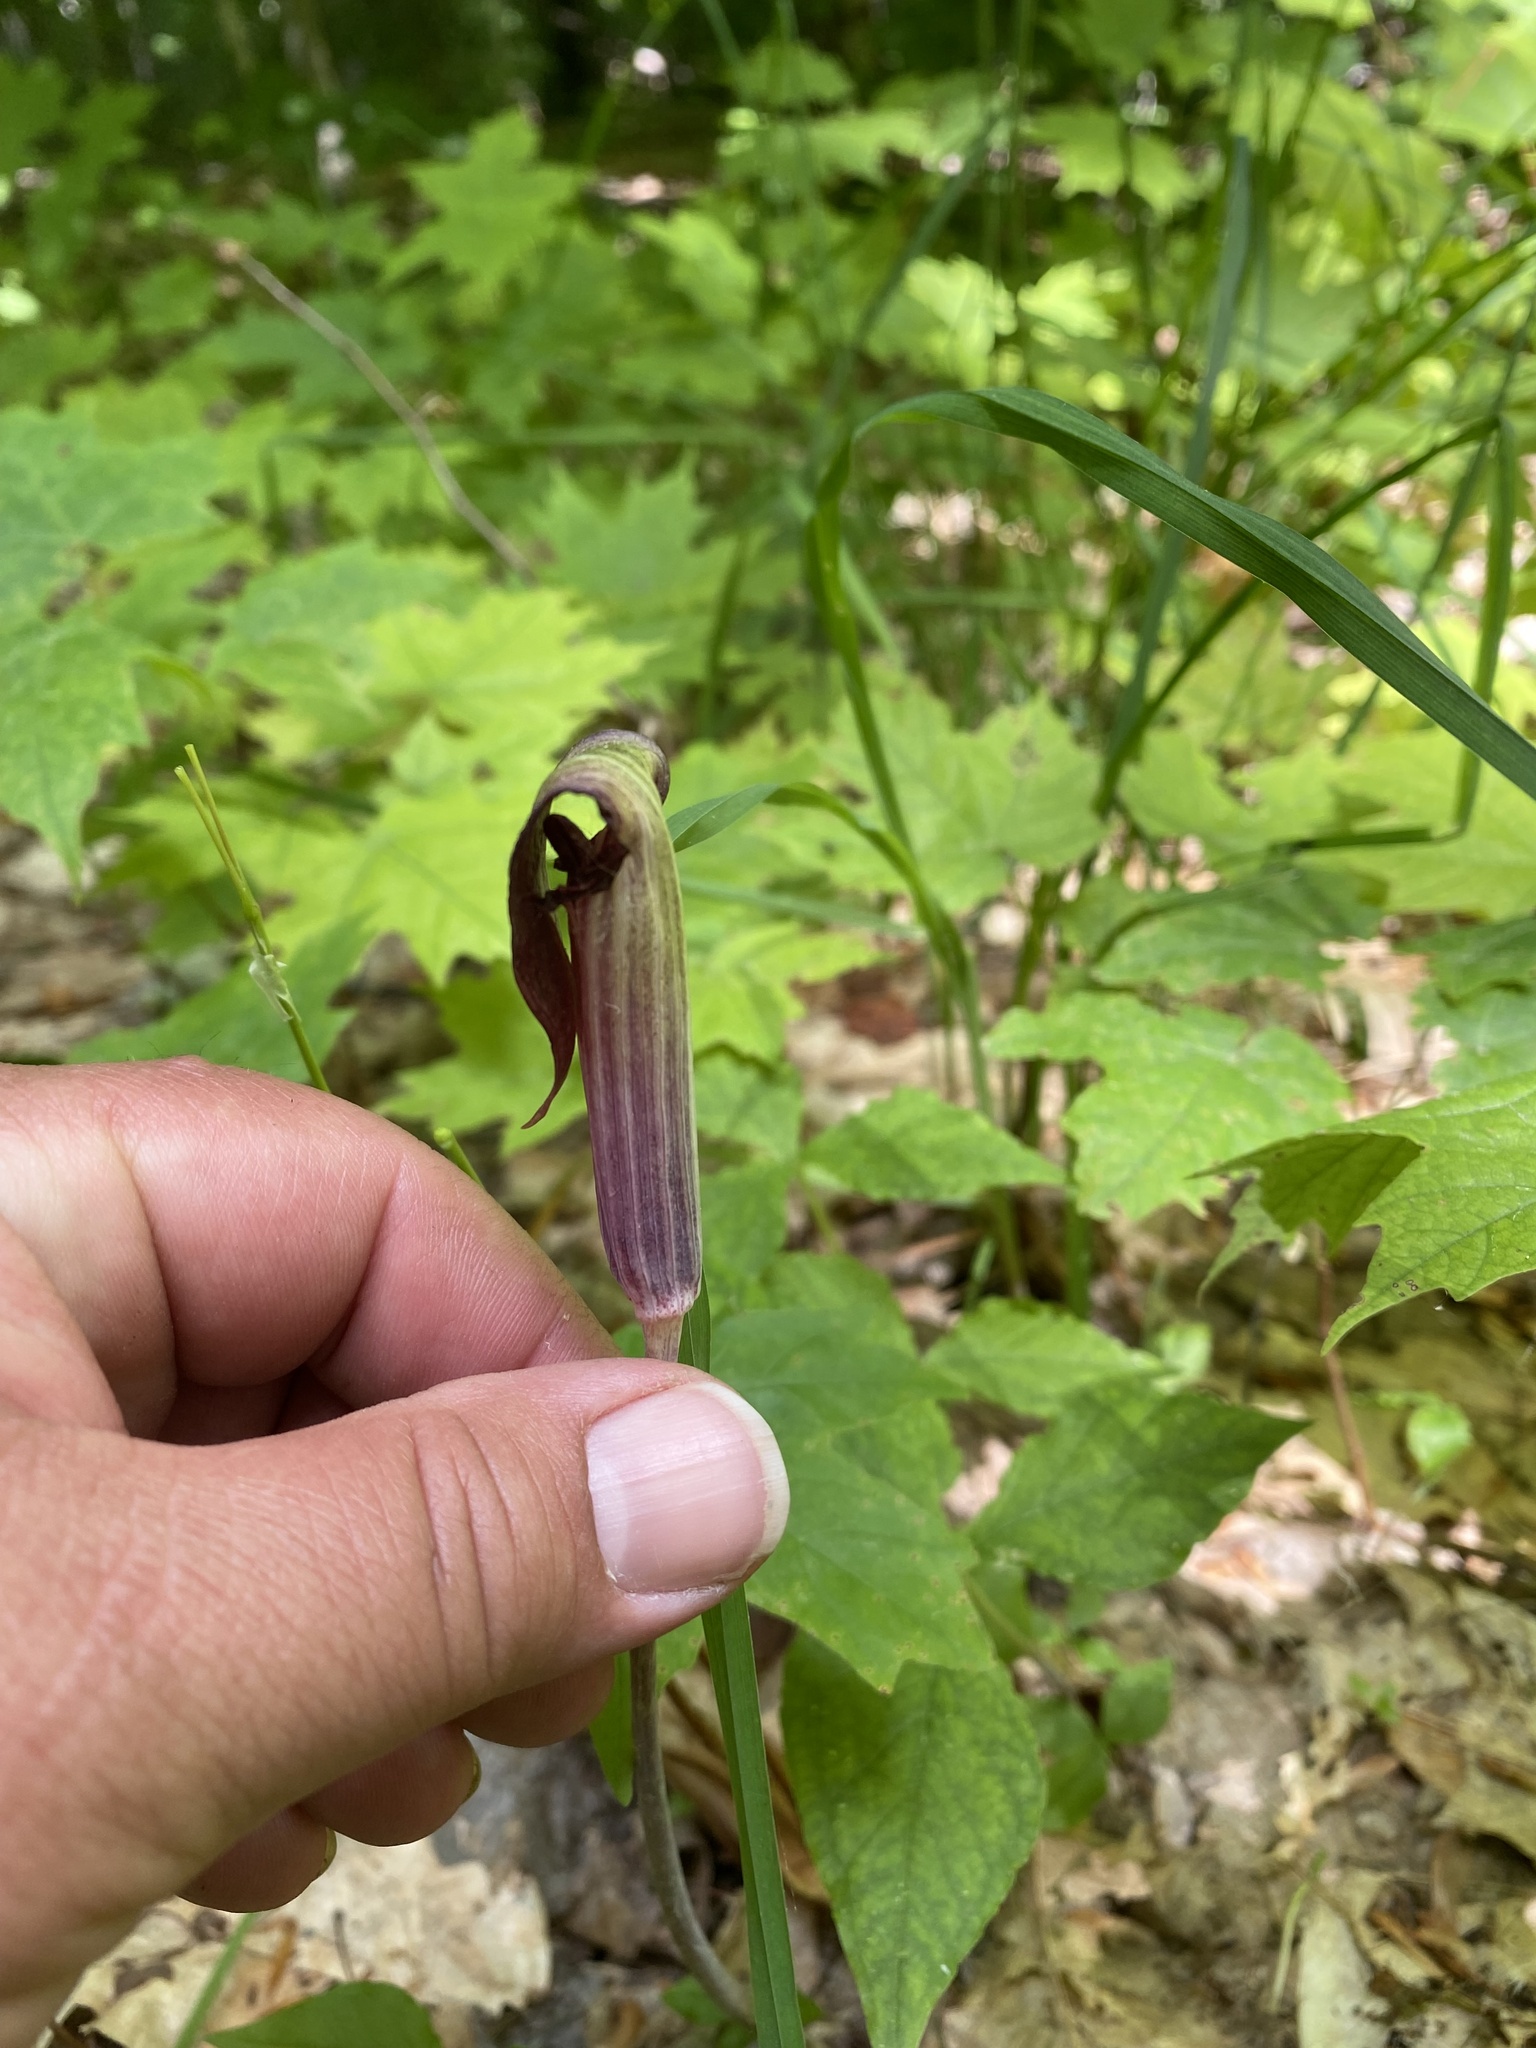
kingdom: Plantae
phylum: Tracheophyta
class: Liliopsida
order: Alismatales
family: Araceae
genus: Arisaema
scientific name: Arisaema triphyllum
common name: Jack-in-the-pulpit
